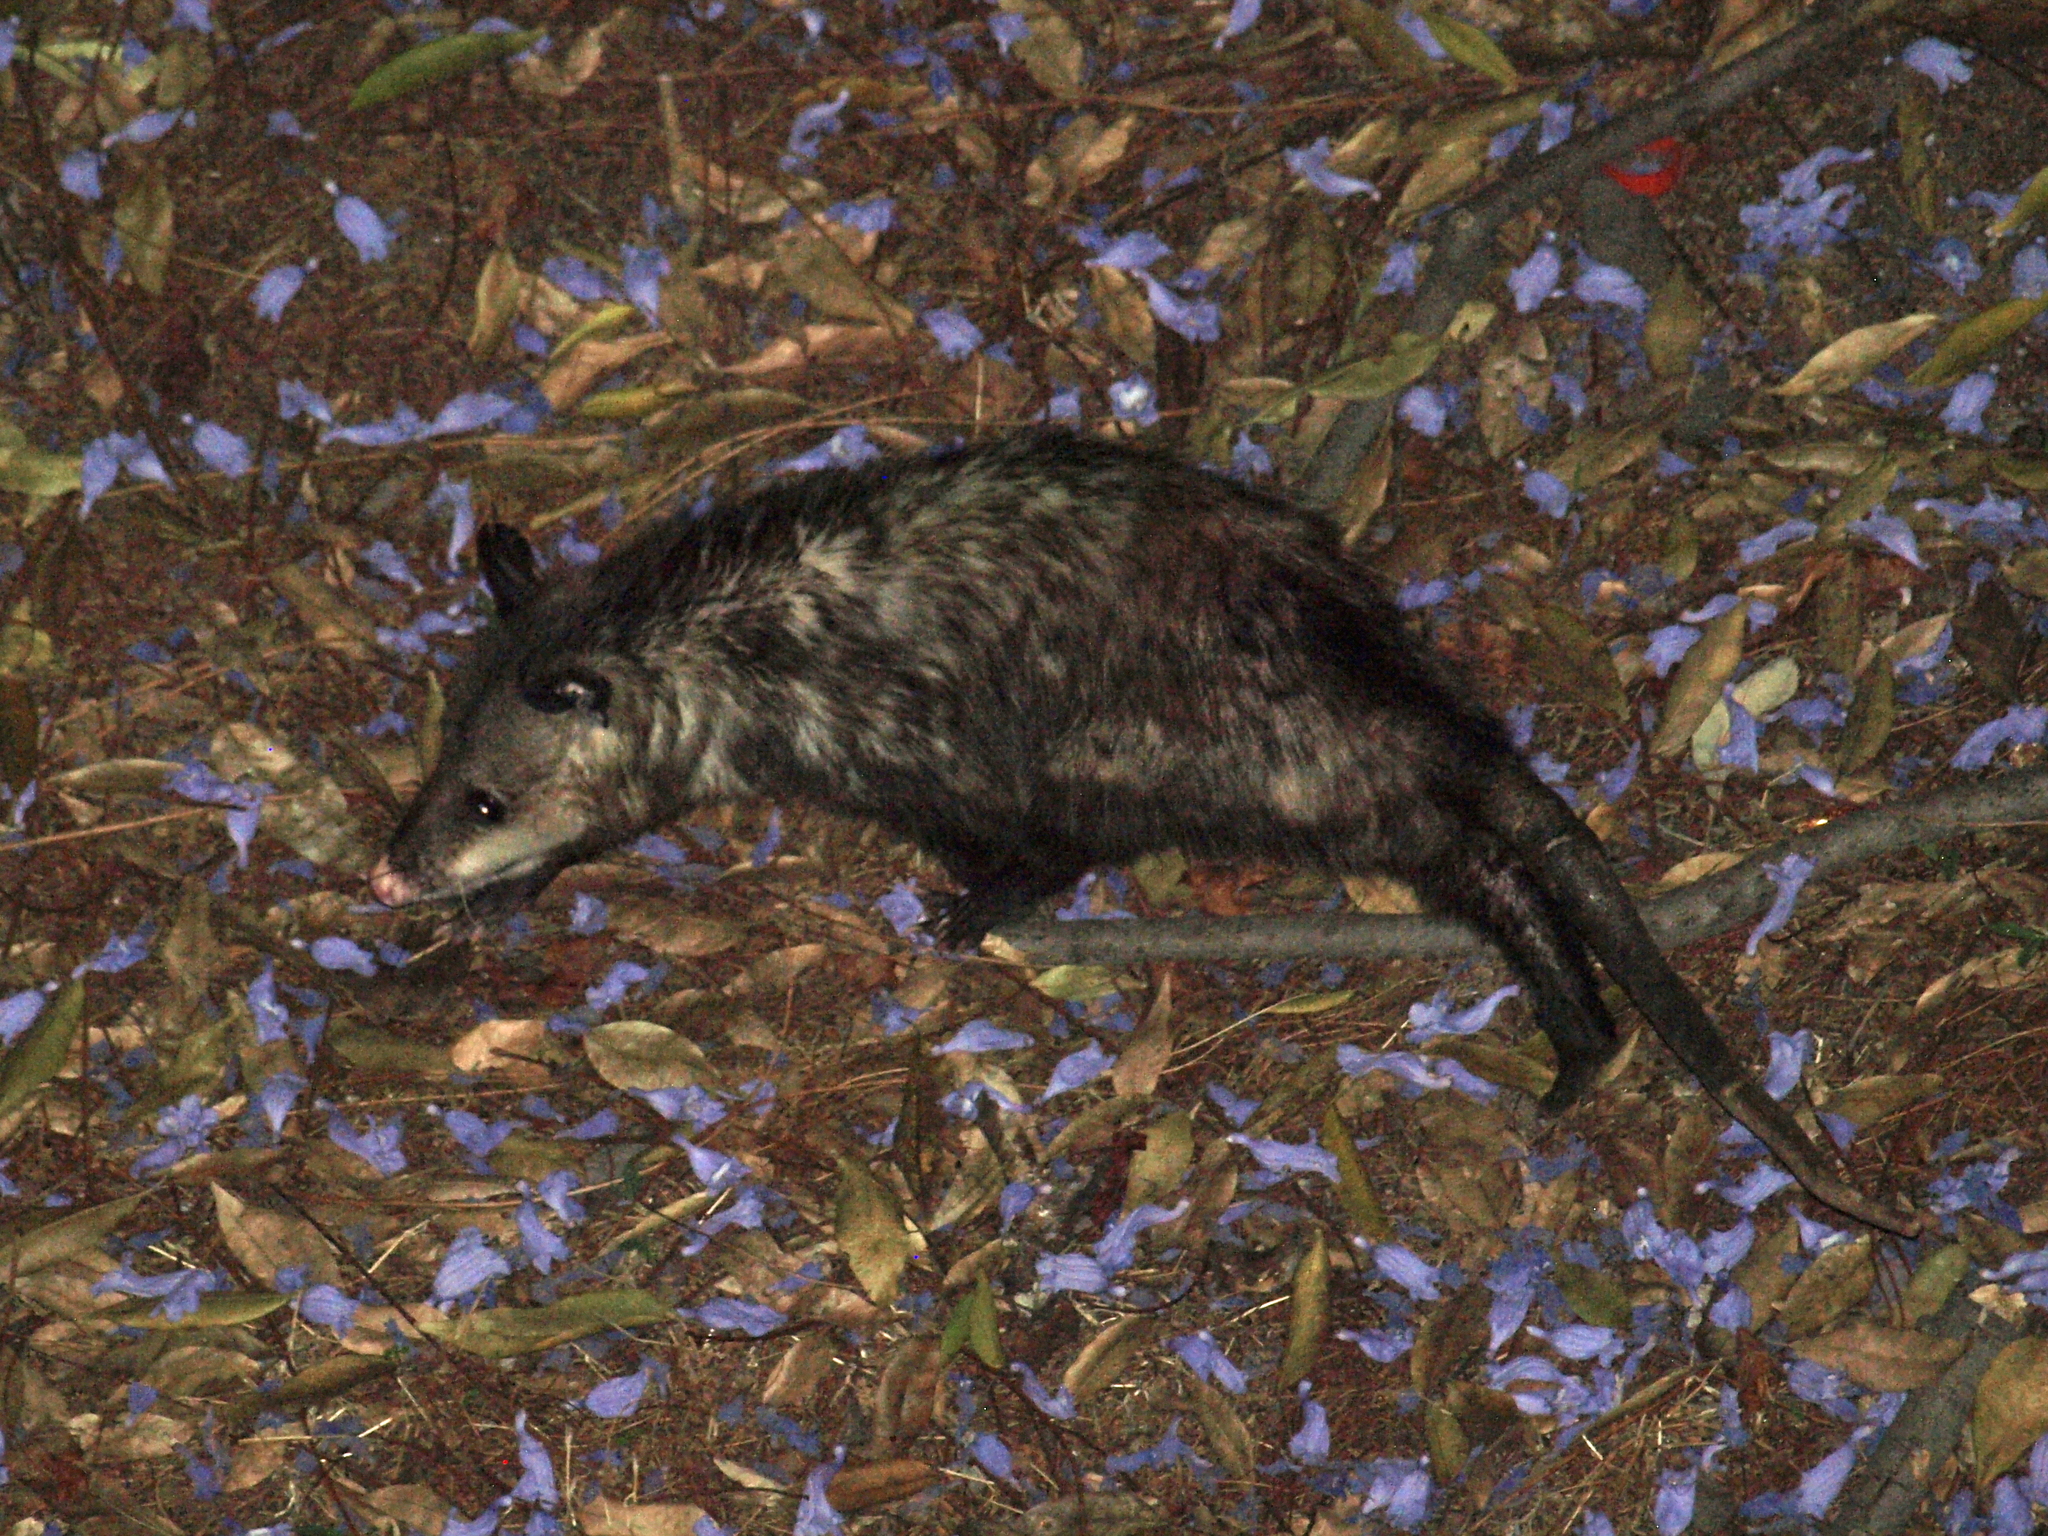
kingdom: Animalia
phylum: Chordata
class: Mammalia
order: Didelphimorphia
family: Didelphidae
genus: Didelphis
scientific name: Didelphis virginiana
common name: Virginia opossum
